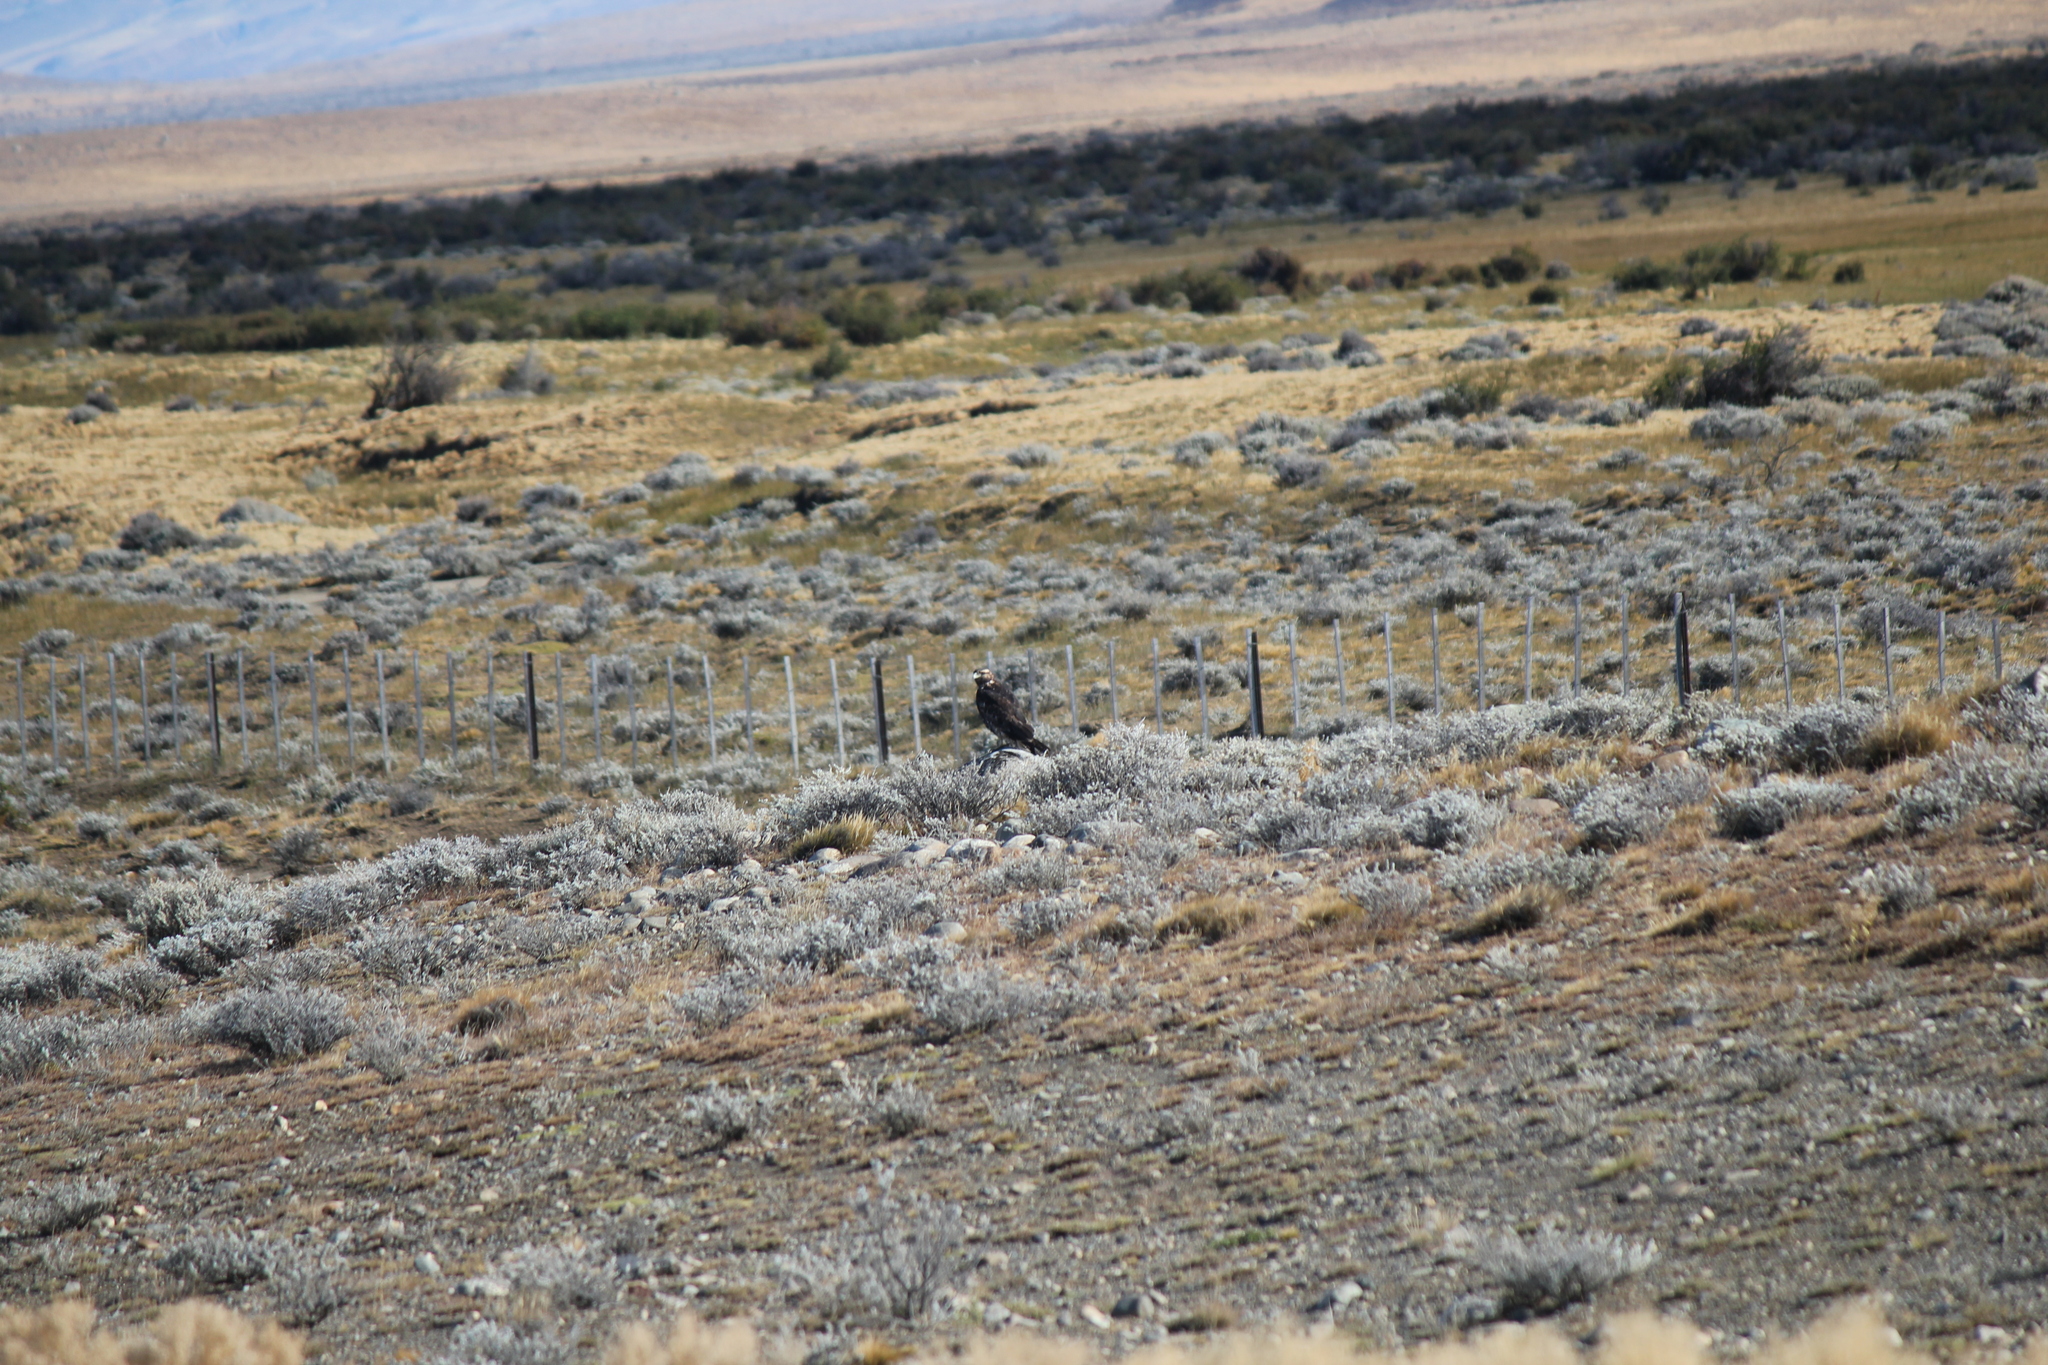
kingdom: Animalia
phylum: Chordata
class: Aves
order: Accipitriformes
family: Accipitridae
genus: Geranoaetus
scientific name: Geranoaetus melanoleucus
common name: Black-chested buzzard-eagle
